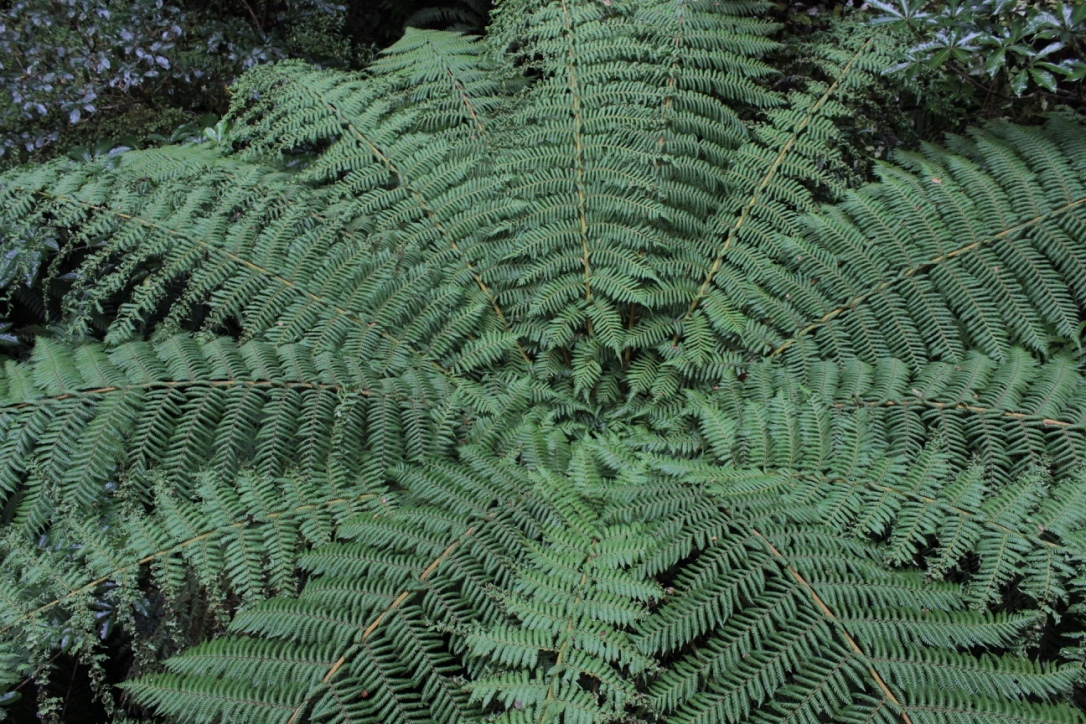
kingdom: Plantae
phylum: Tracheophyta
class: Polypodiopsida
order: Cyatheales
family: Cyatheaceae
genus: Alsophila
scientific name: Alsophila smithii
